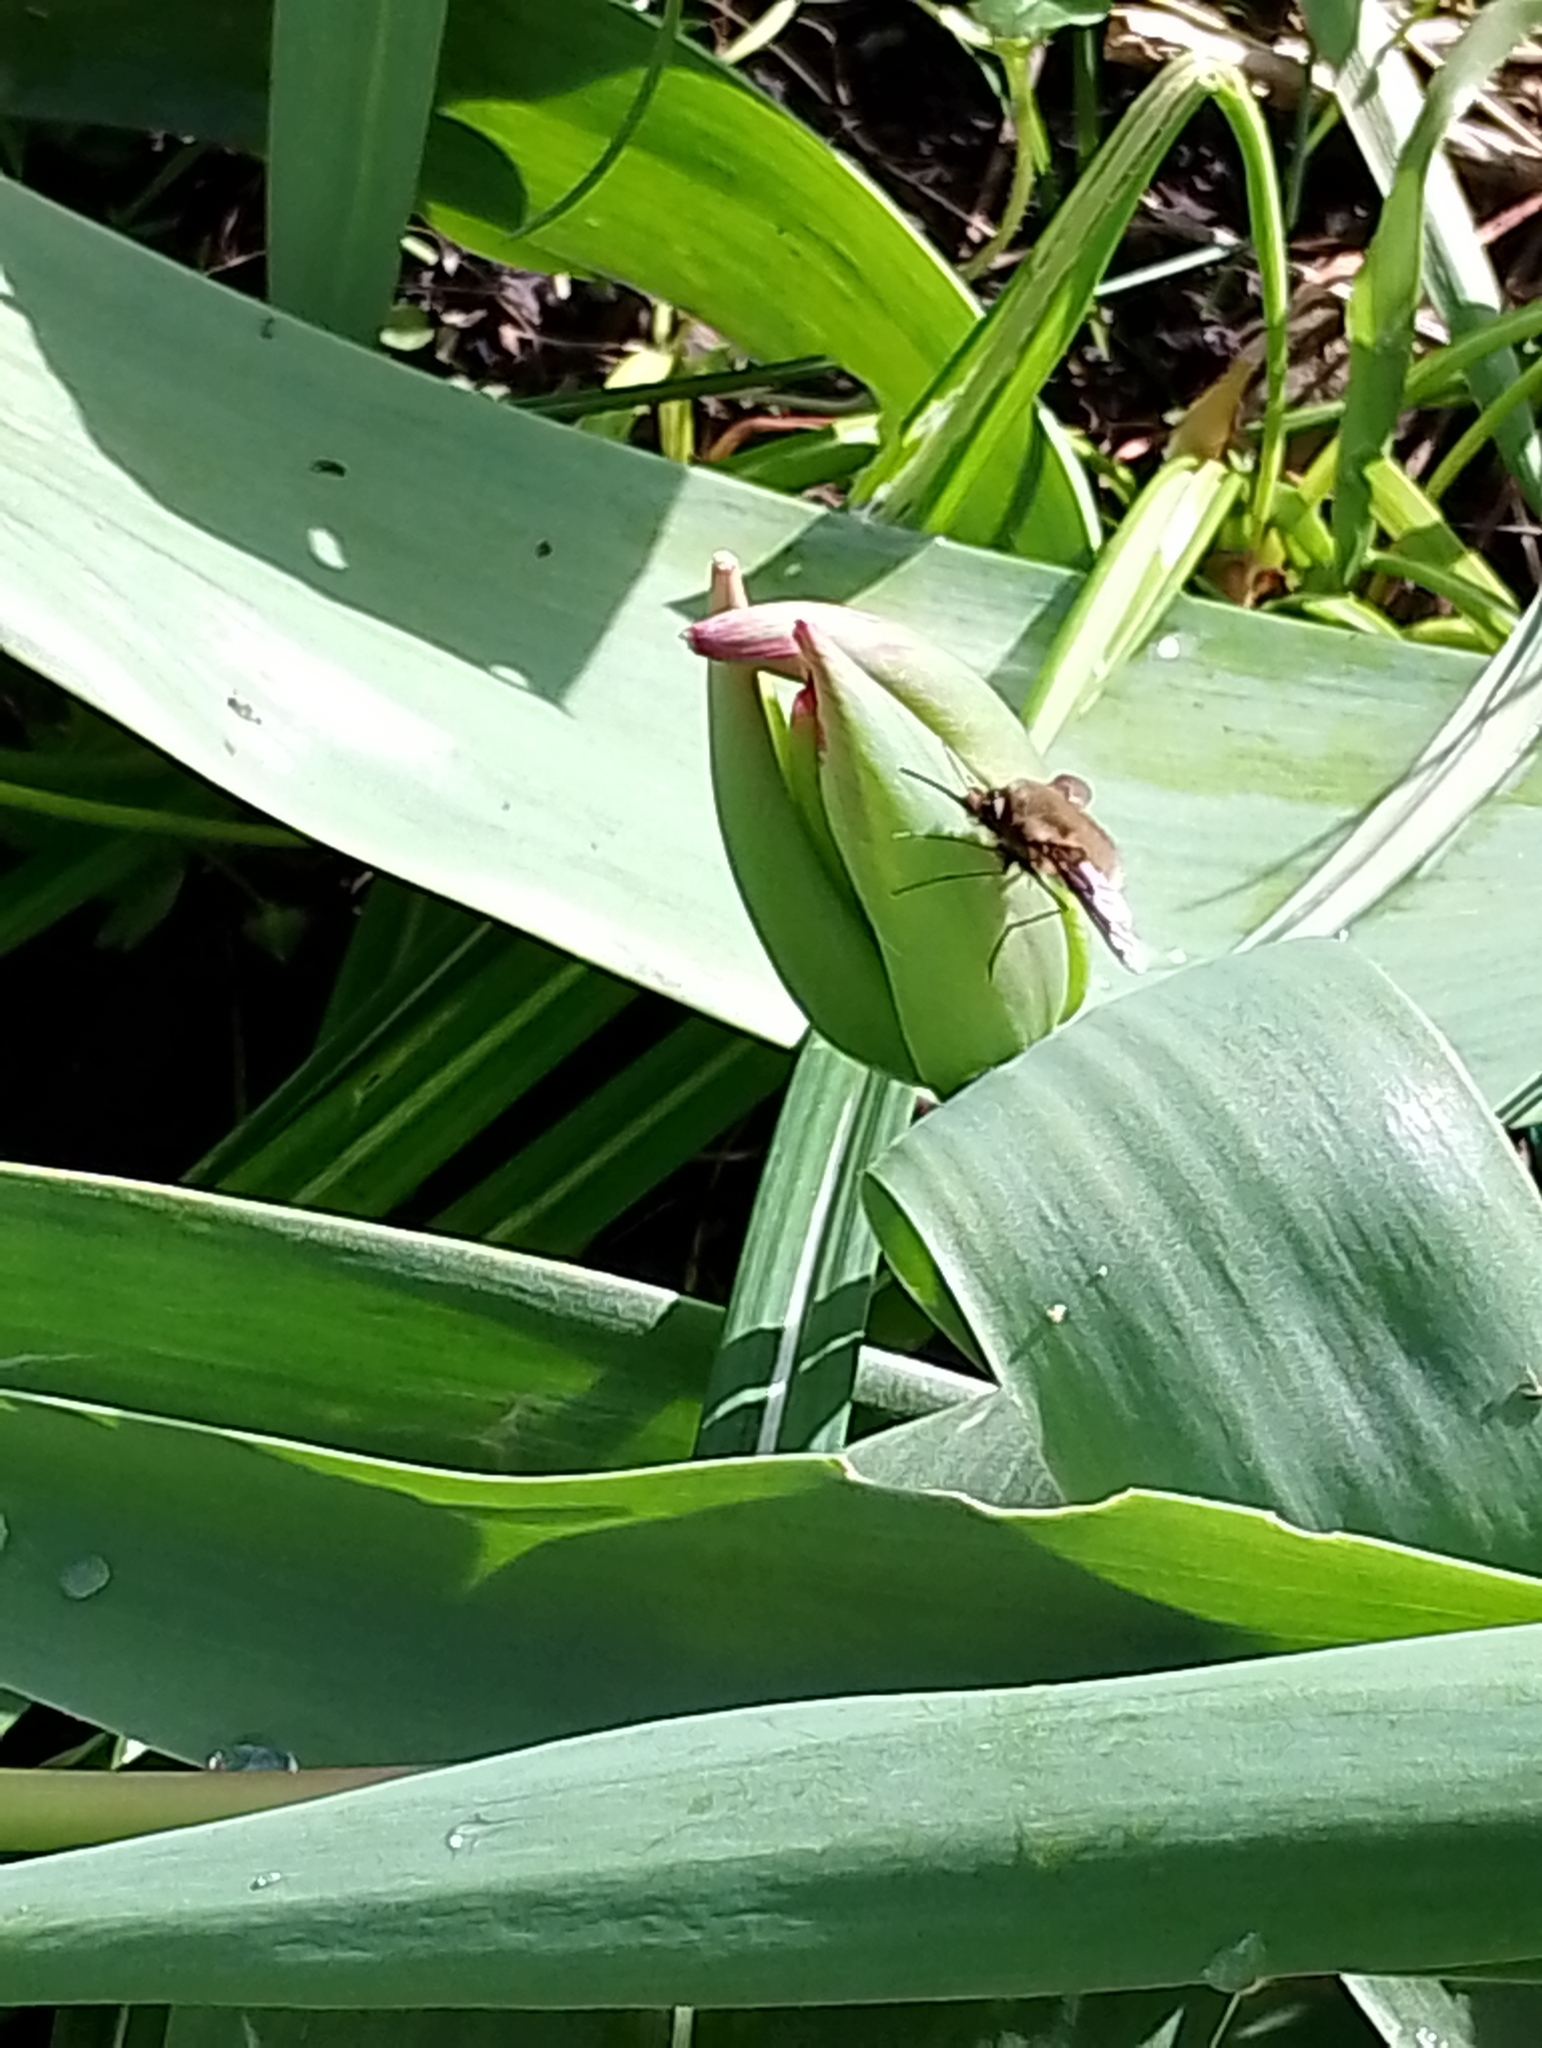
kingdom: Animalia
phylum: Arthropoda
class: Insecta
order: Diptera
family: Bombyliidae
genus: Bombylius
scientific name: Bombylius major
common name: Bee fly
